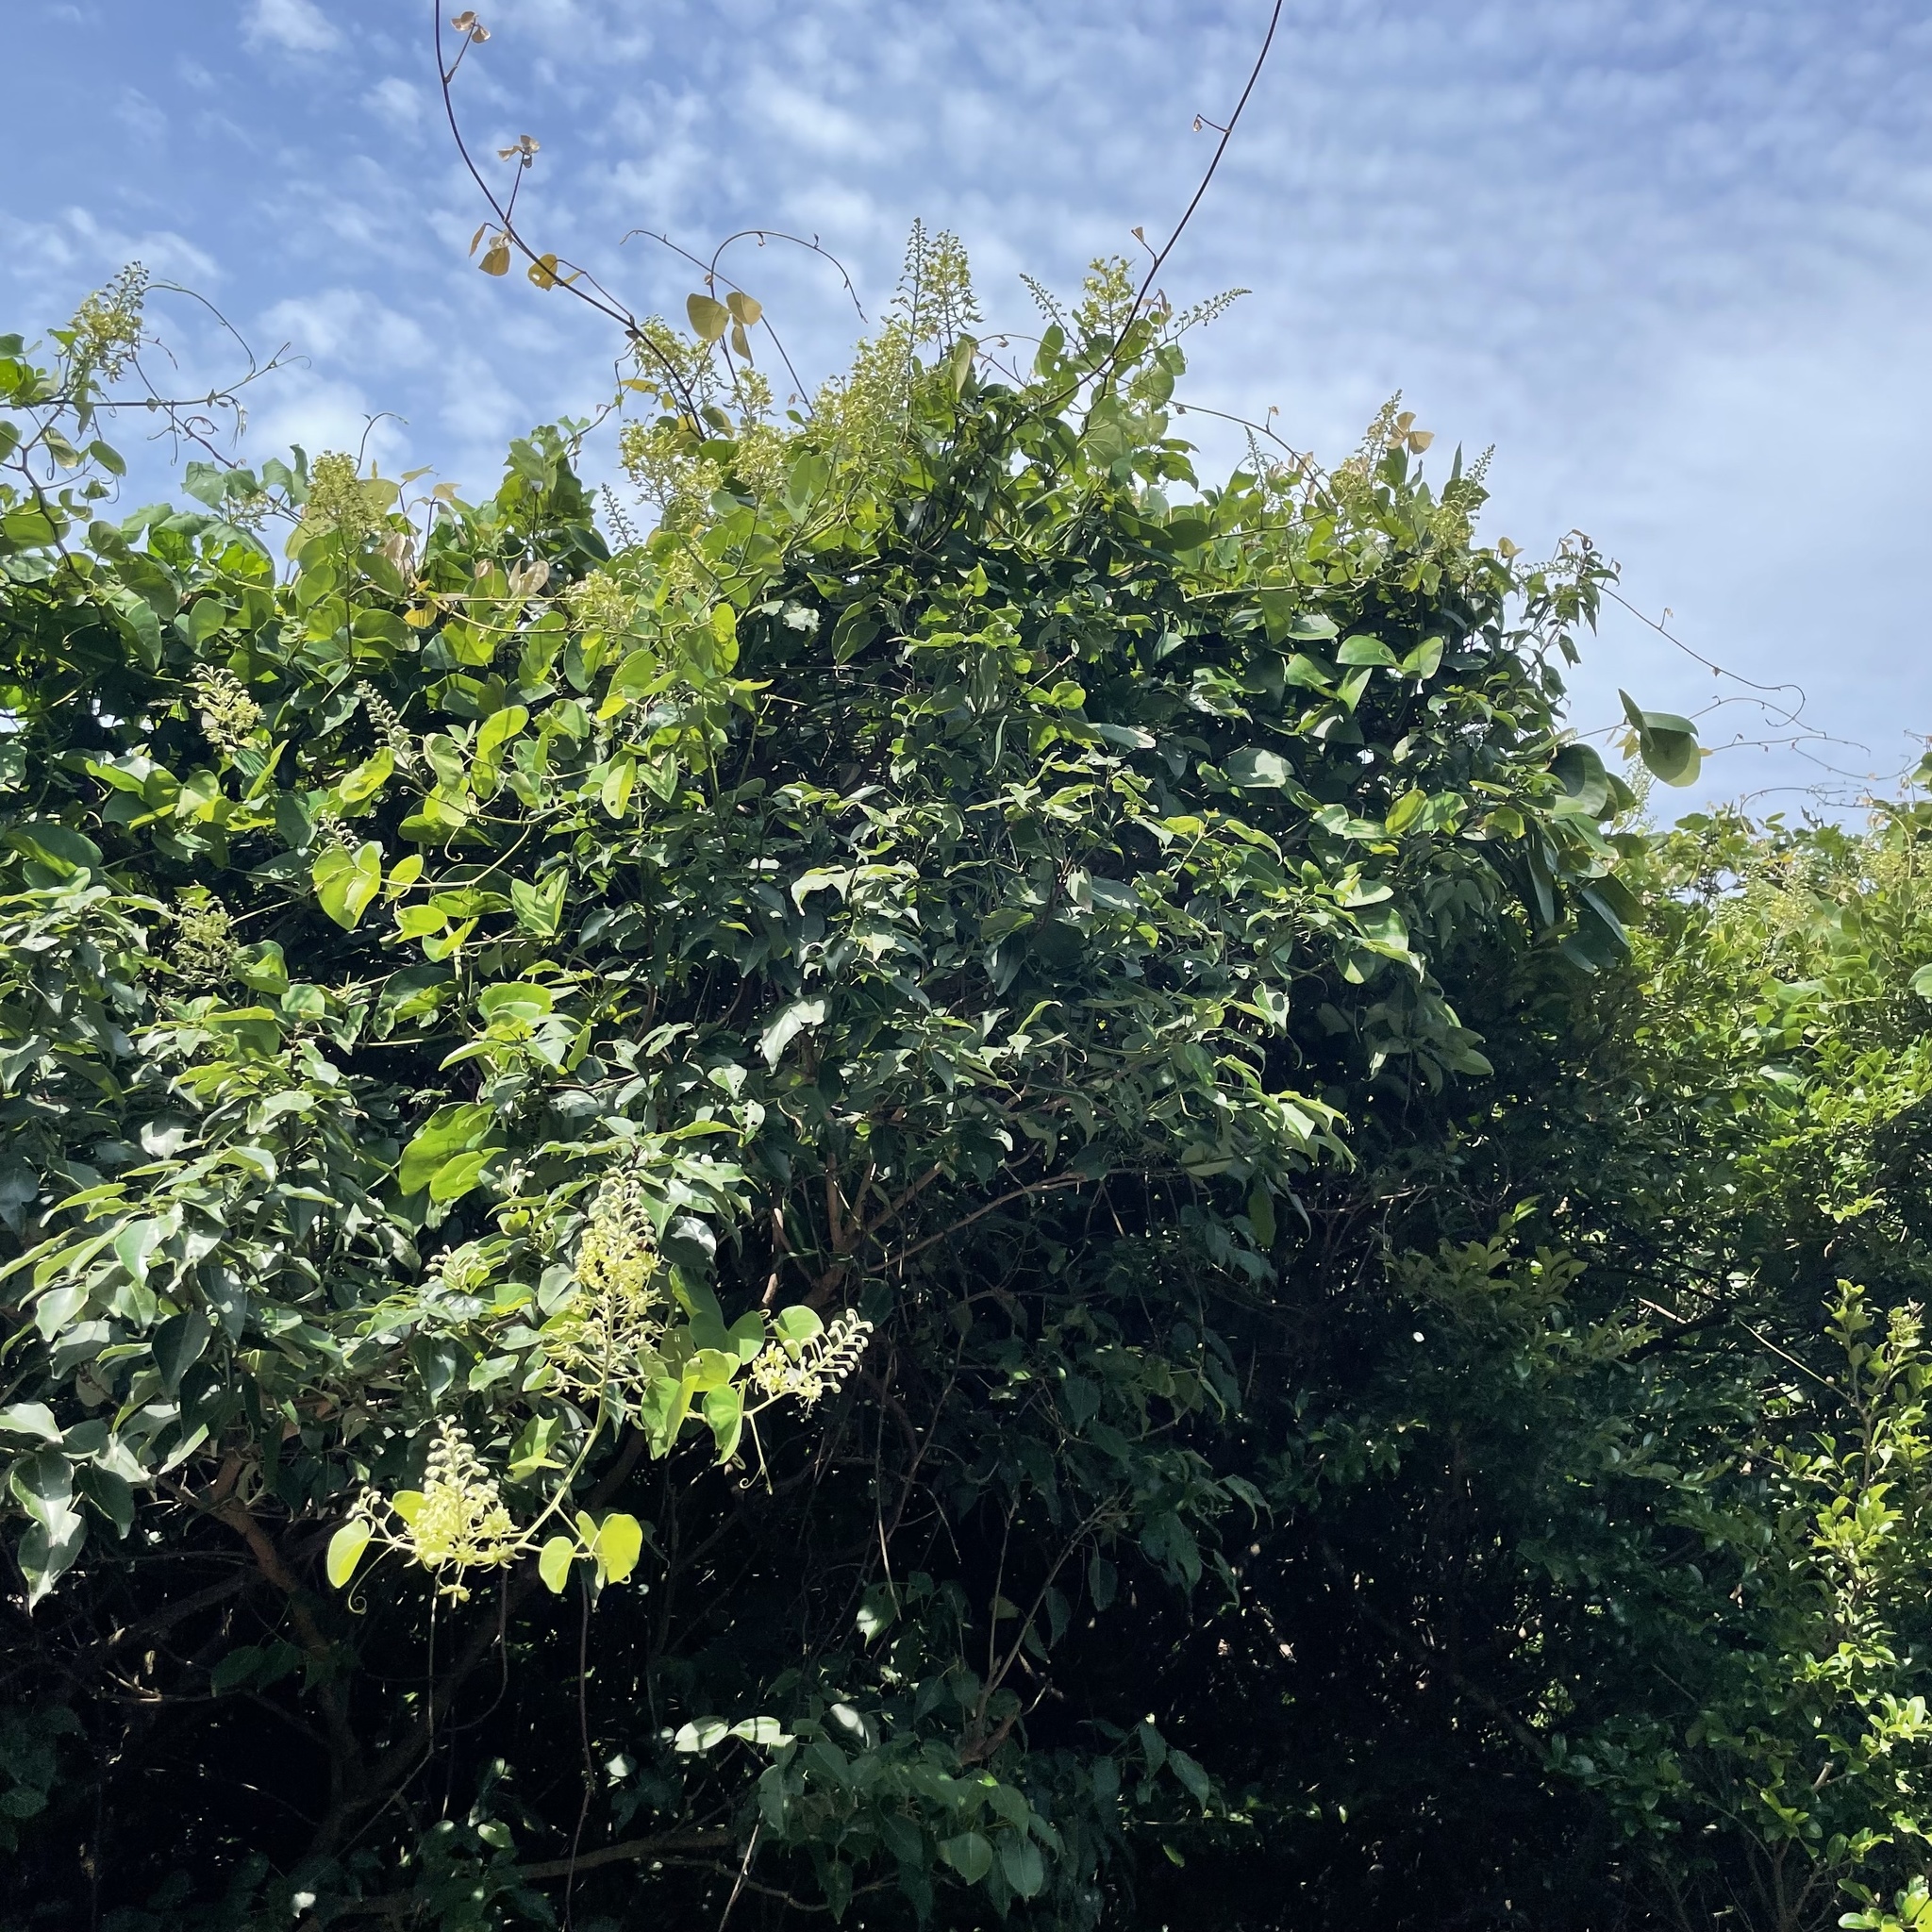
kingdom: Plantae
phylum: Tracheophyta
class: Magnoliopsida
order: Fabales
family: Fabaceae
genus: Phanera
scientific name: Phanera japonica
